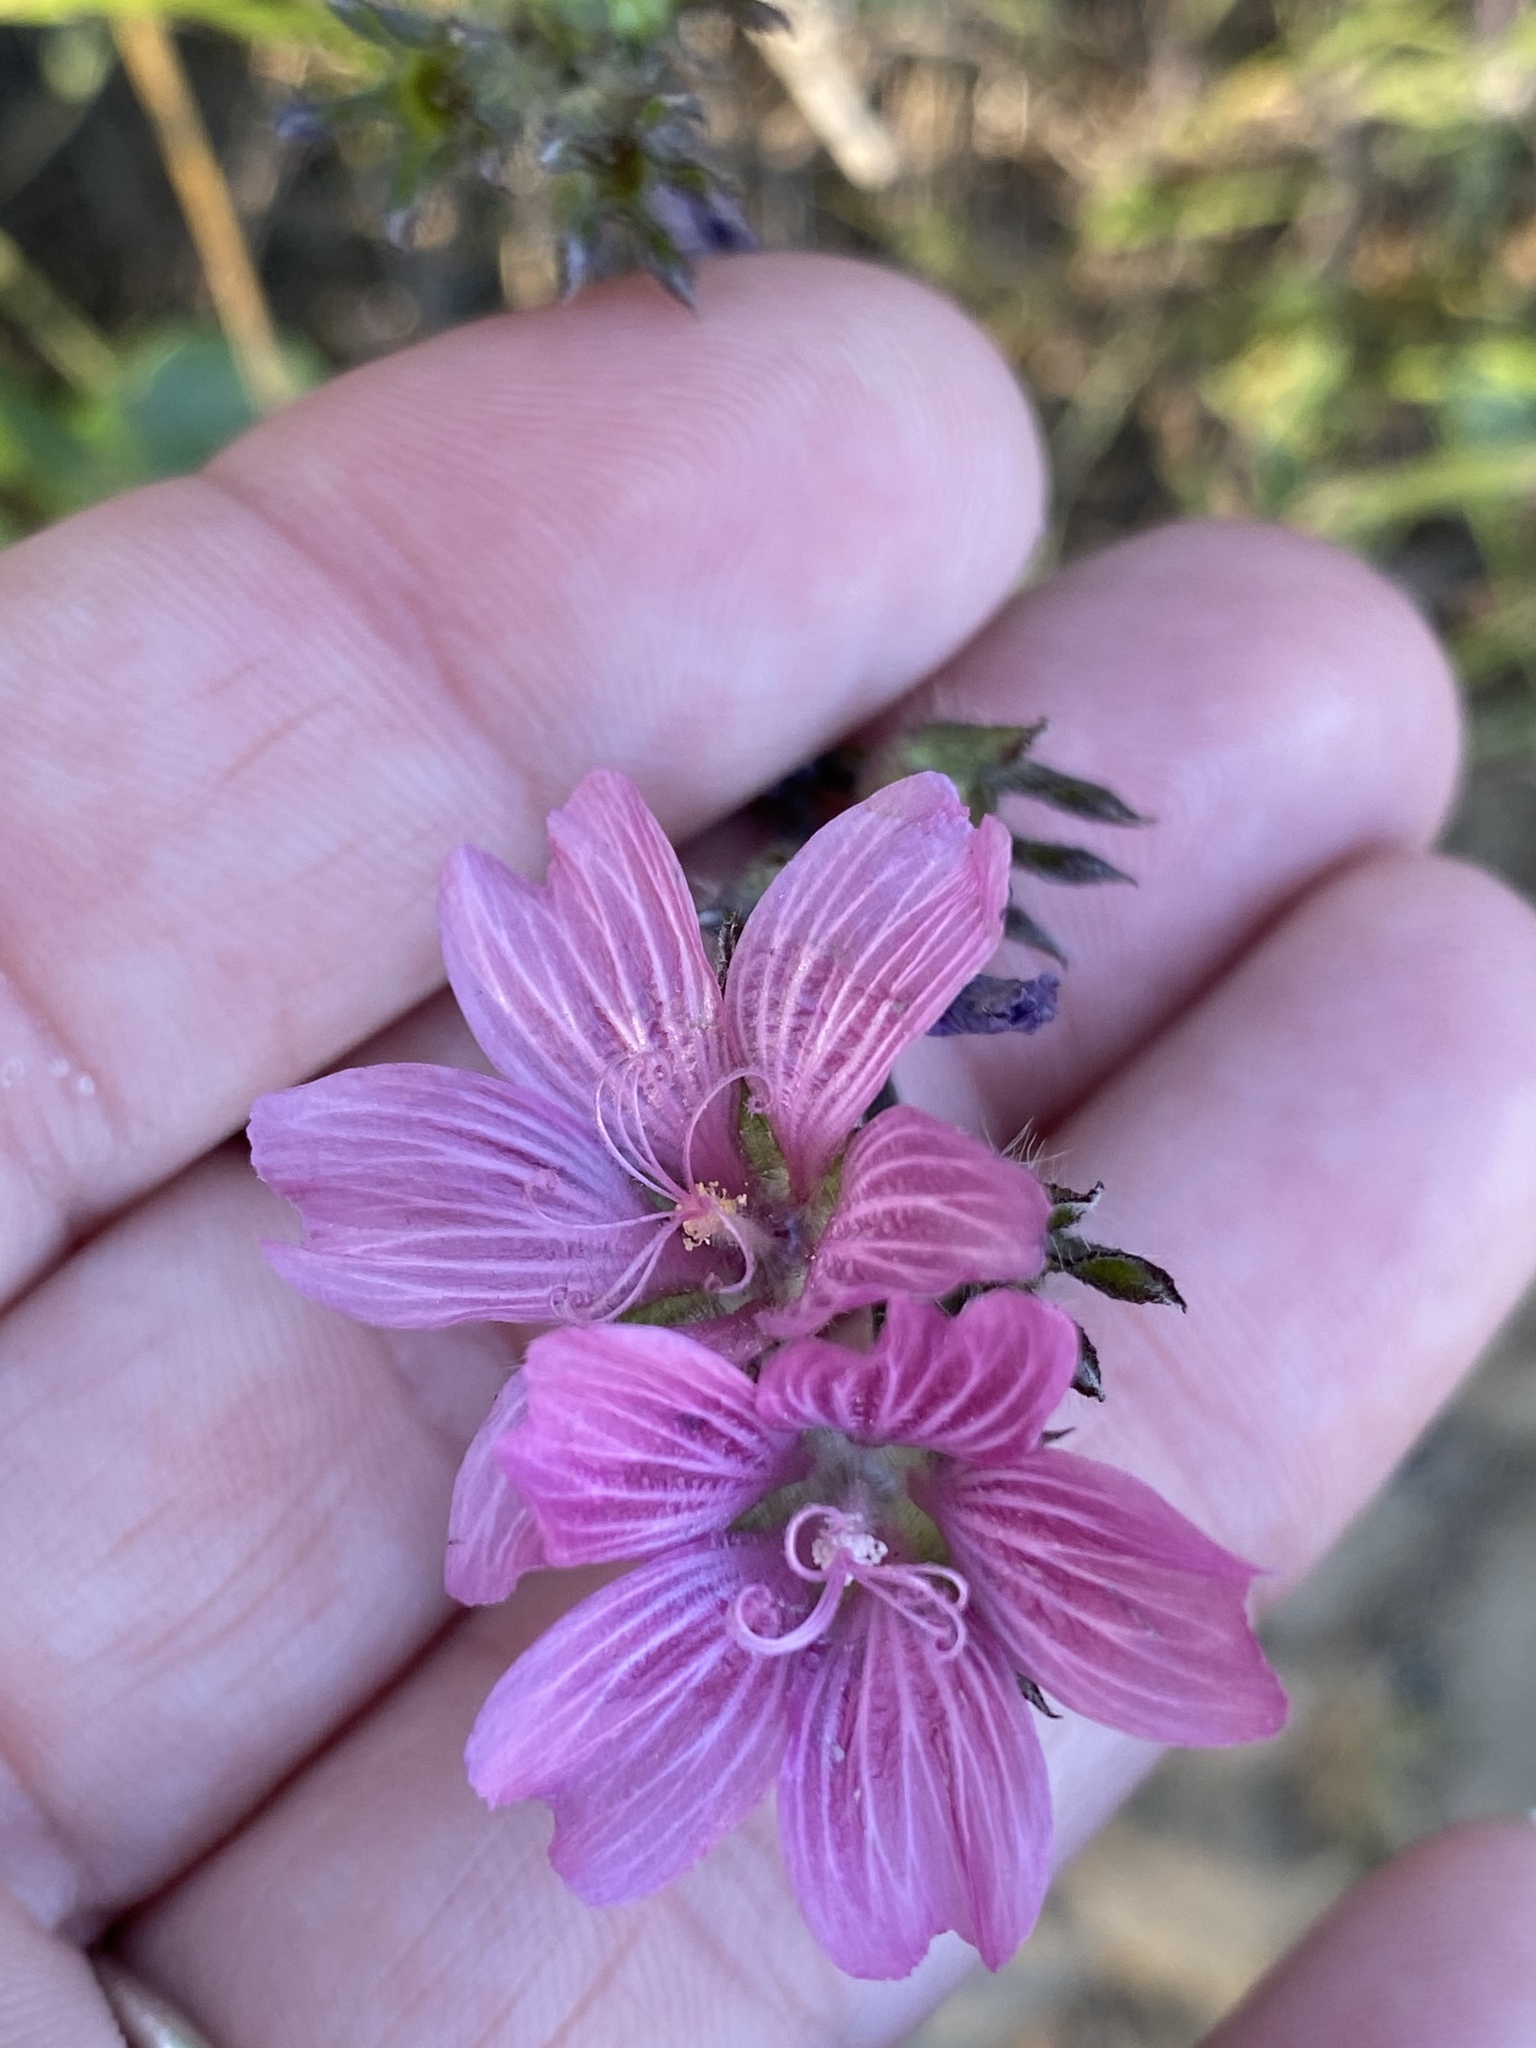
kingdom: Plantae
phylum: Tracheophyta
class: Magnoliopsida
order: Malvales
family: Malvaceae
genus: Sidalcea
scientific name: Sidalcea malviflora
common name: Greek mallow
